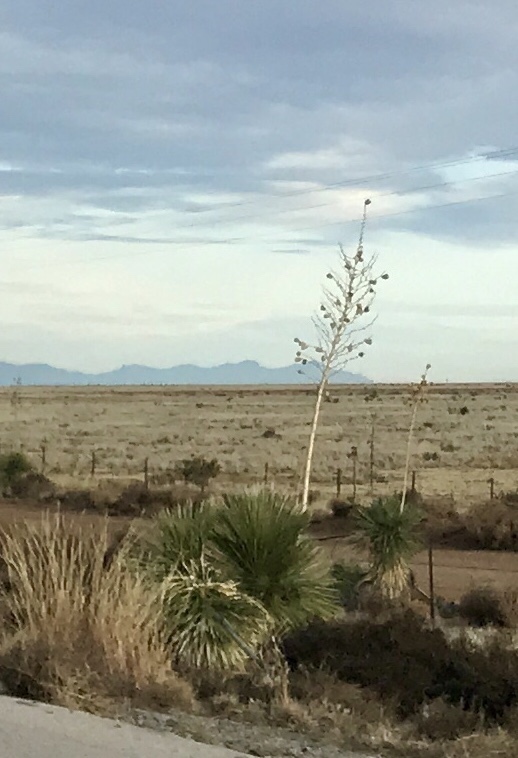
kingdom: Plantae
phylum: Tracheophyta
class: Liliopsida
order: Asparagales
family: Asparagaceae
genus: Yucca
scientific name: Yucca elata
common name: Palmella
